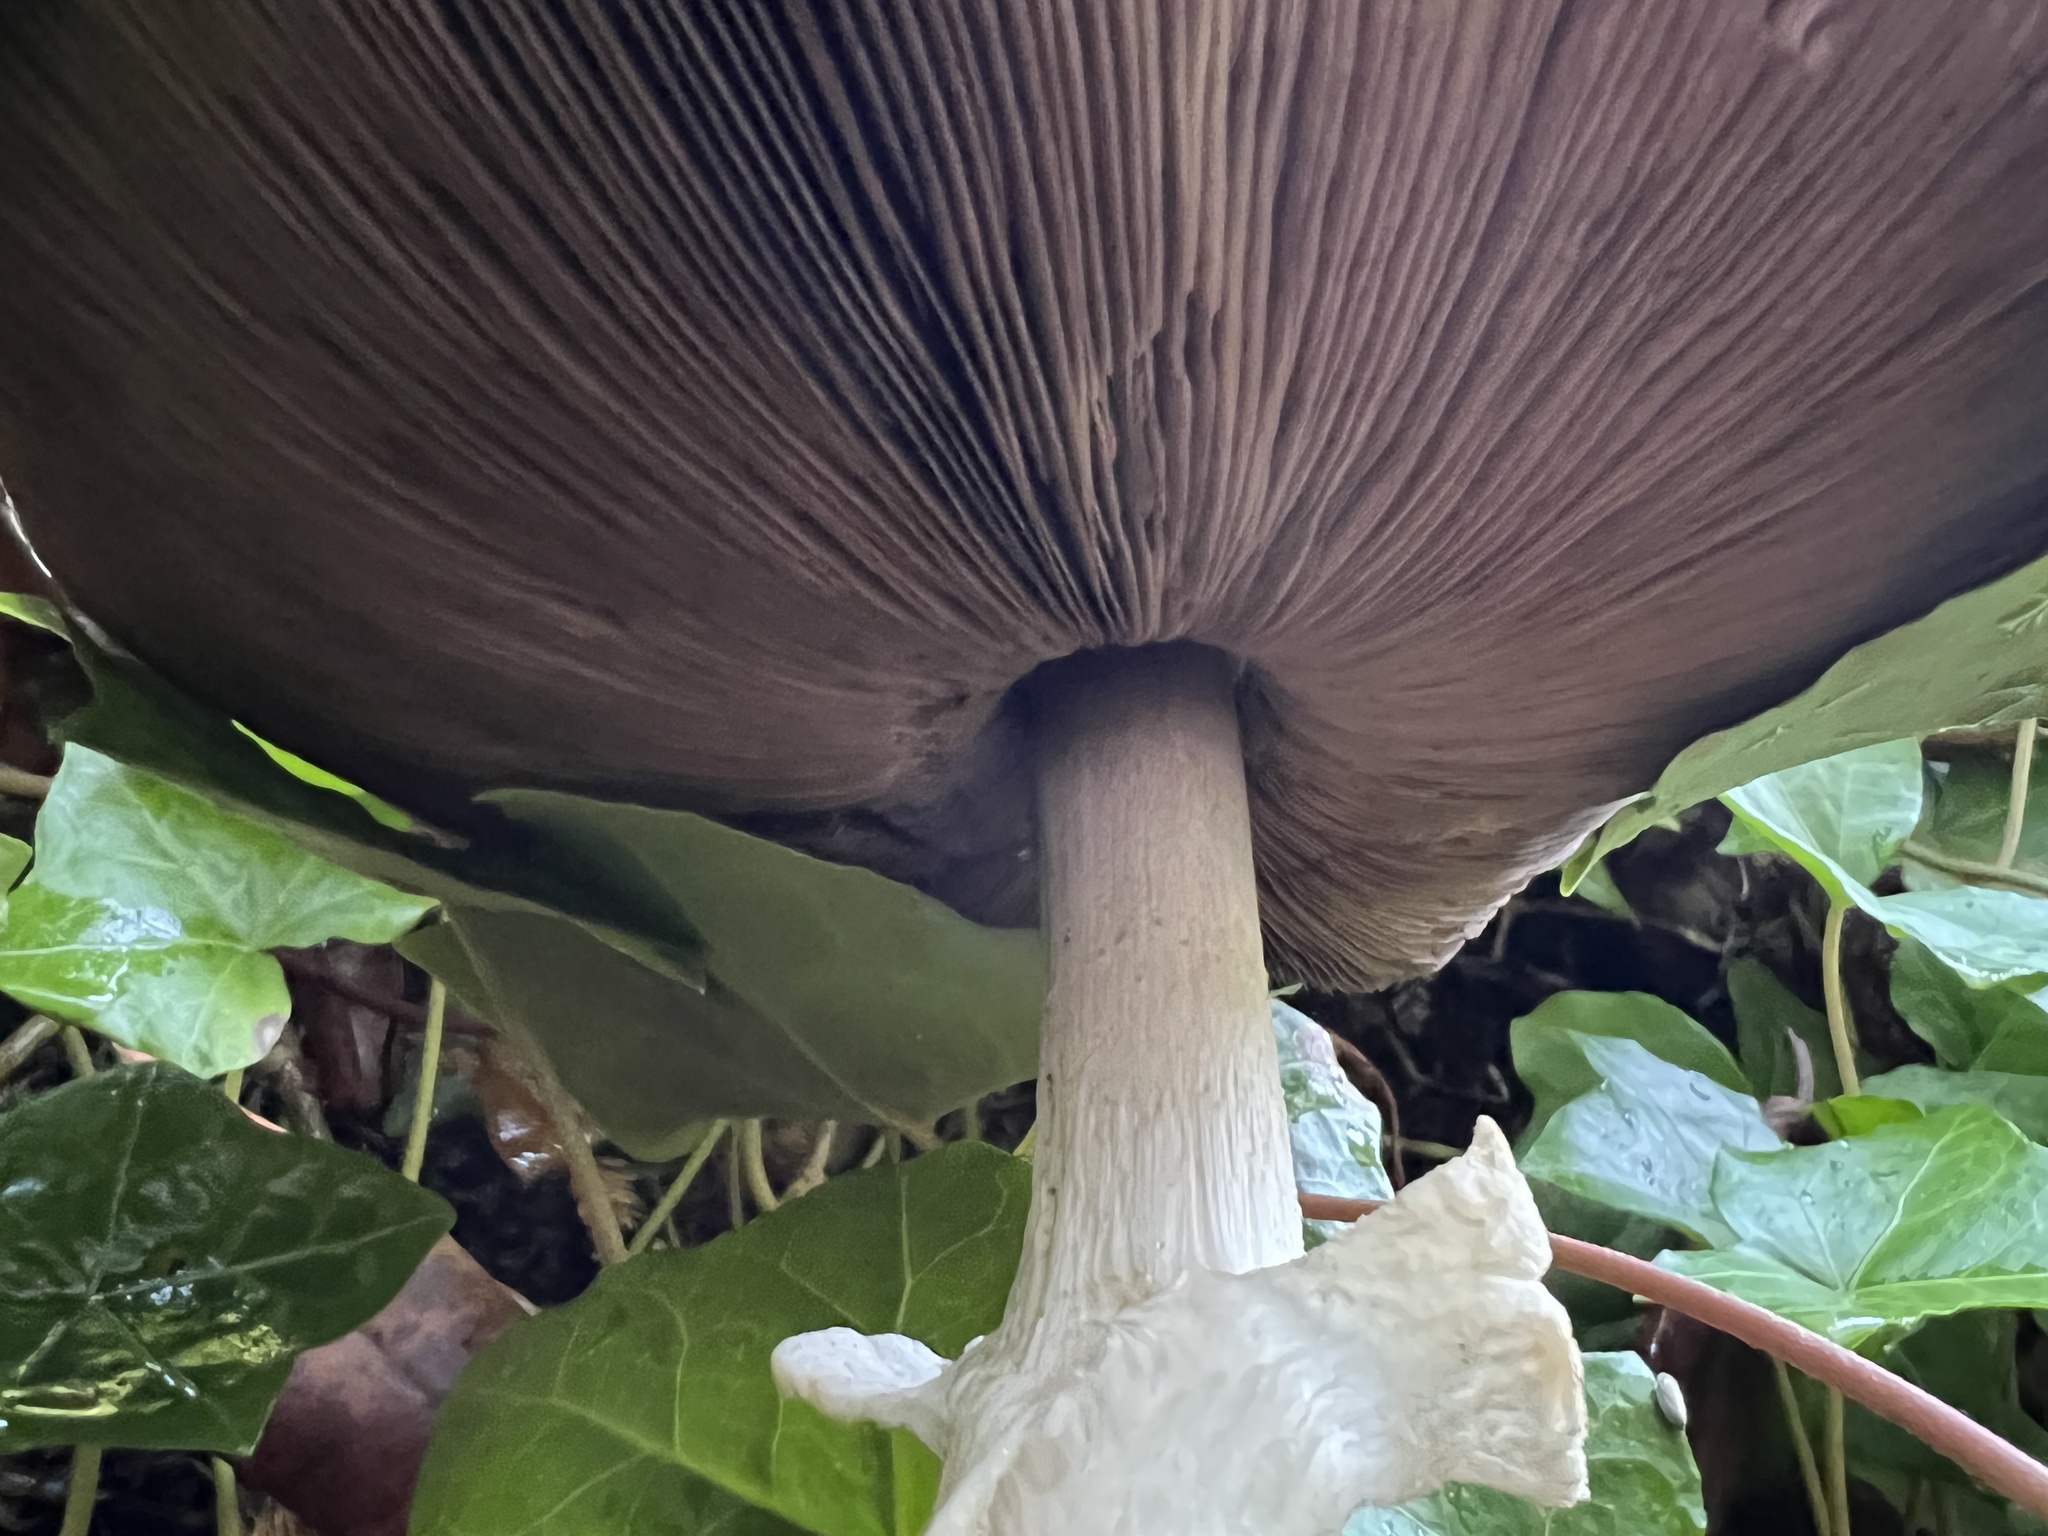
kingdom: Fungi
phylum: Basidiomycota
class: Agaricomycetes
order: Agaricales
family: Agaricaceae
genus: Agaricus
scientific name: Agaricus subrutilescens
